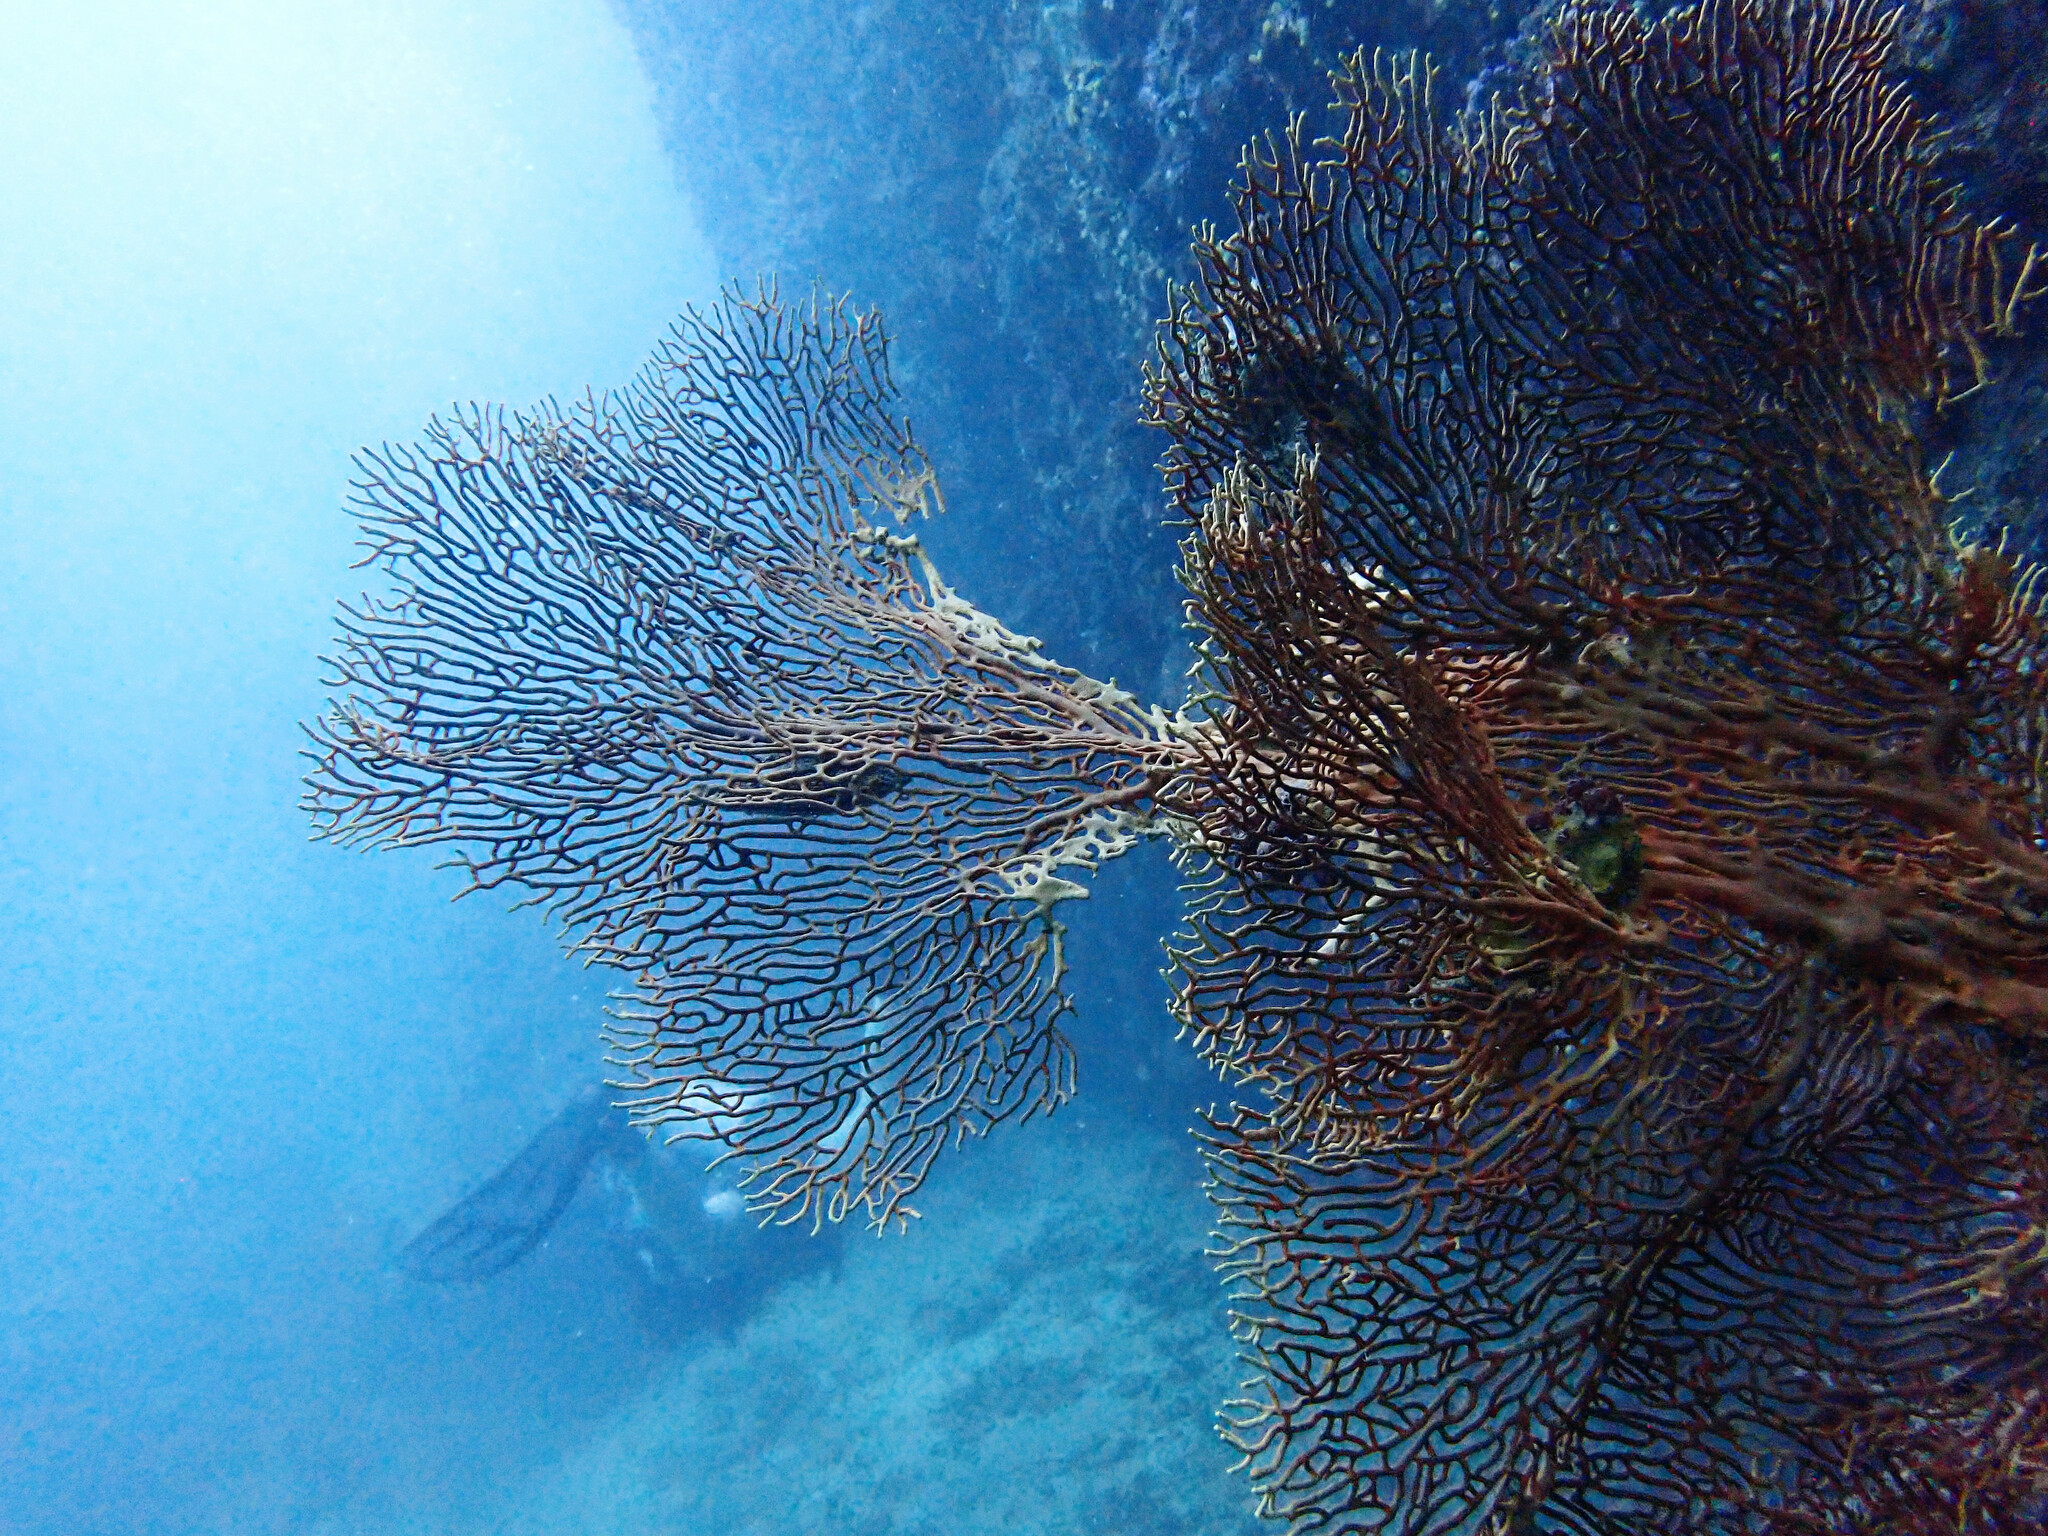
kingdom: Animalia
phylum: Cnidaria
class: Anthozoa
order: Malacalcyonacea
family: Subergorgiidae
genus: Annella
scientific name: Annella mollis
